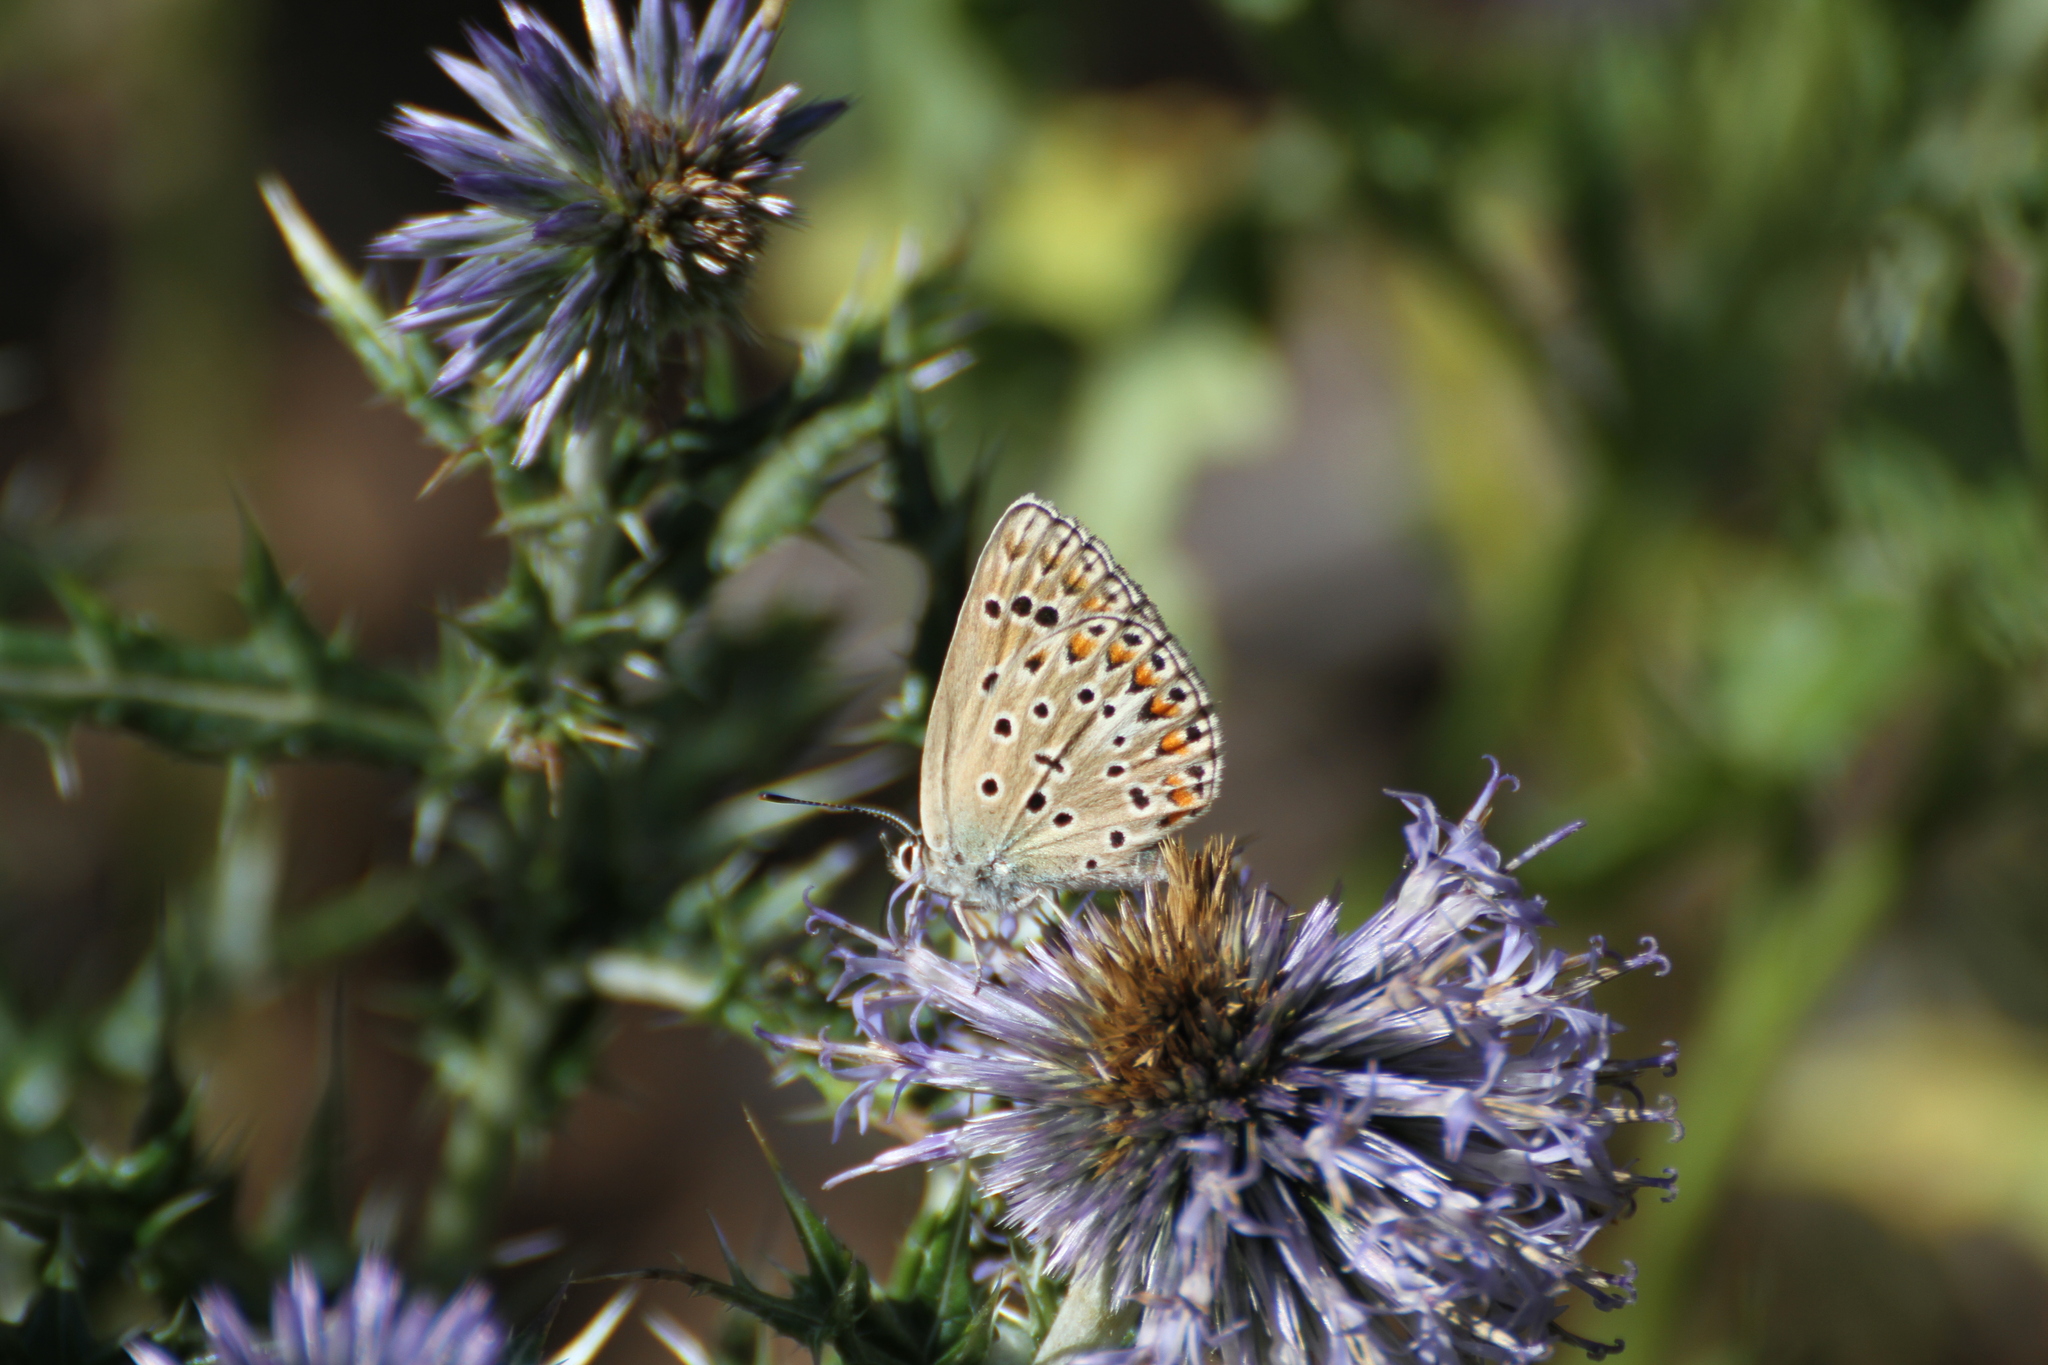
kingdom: Animalia
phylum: Arthropoda
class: Insecta
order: Lepidoptera
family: Lycaenidae
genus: Plebicula
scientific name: Plebicula escheri
